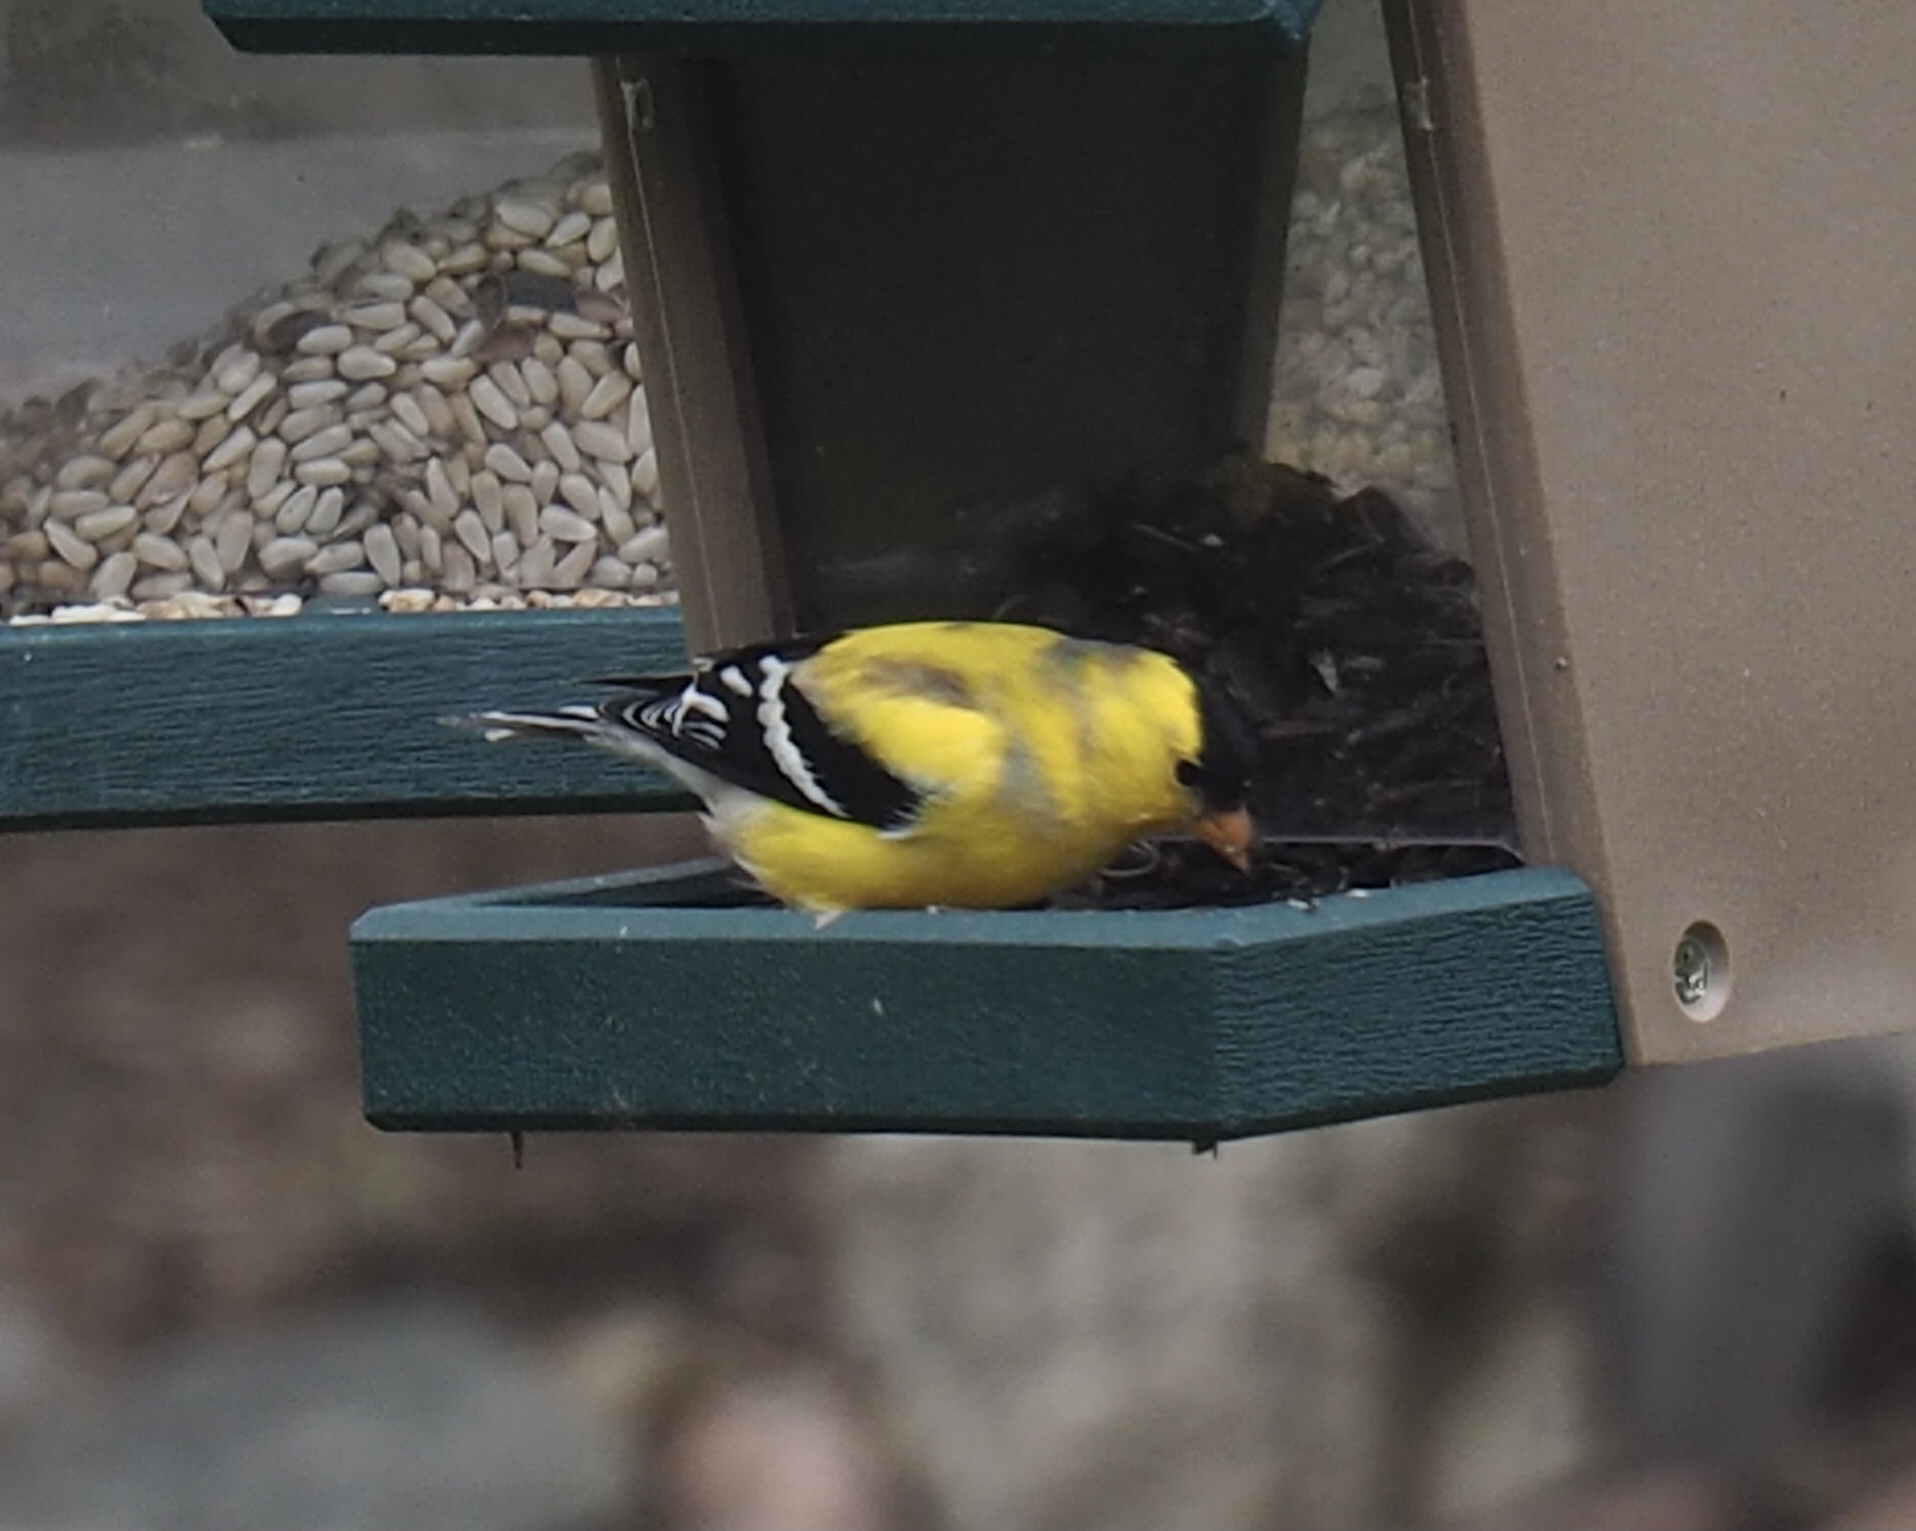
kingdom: Animalia
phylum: Chordata
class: Aves
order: Passeriformes
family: Fringillidae
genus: Spinus
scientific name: Spinus tristis
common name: American goldfinch
